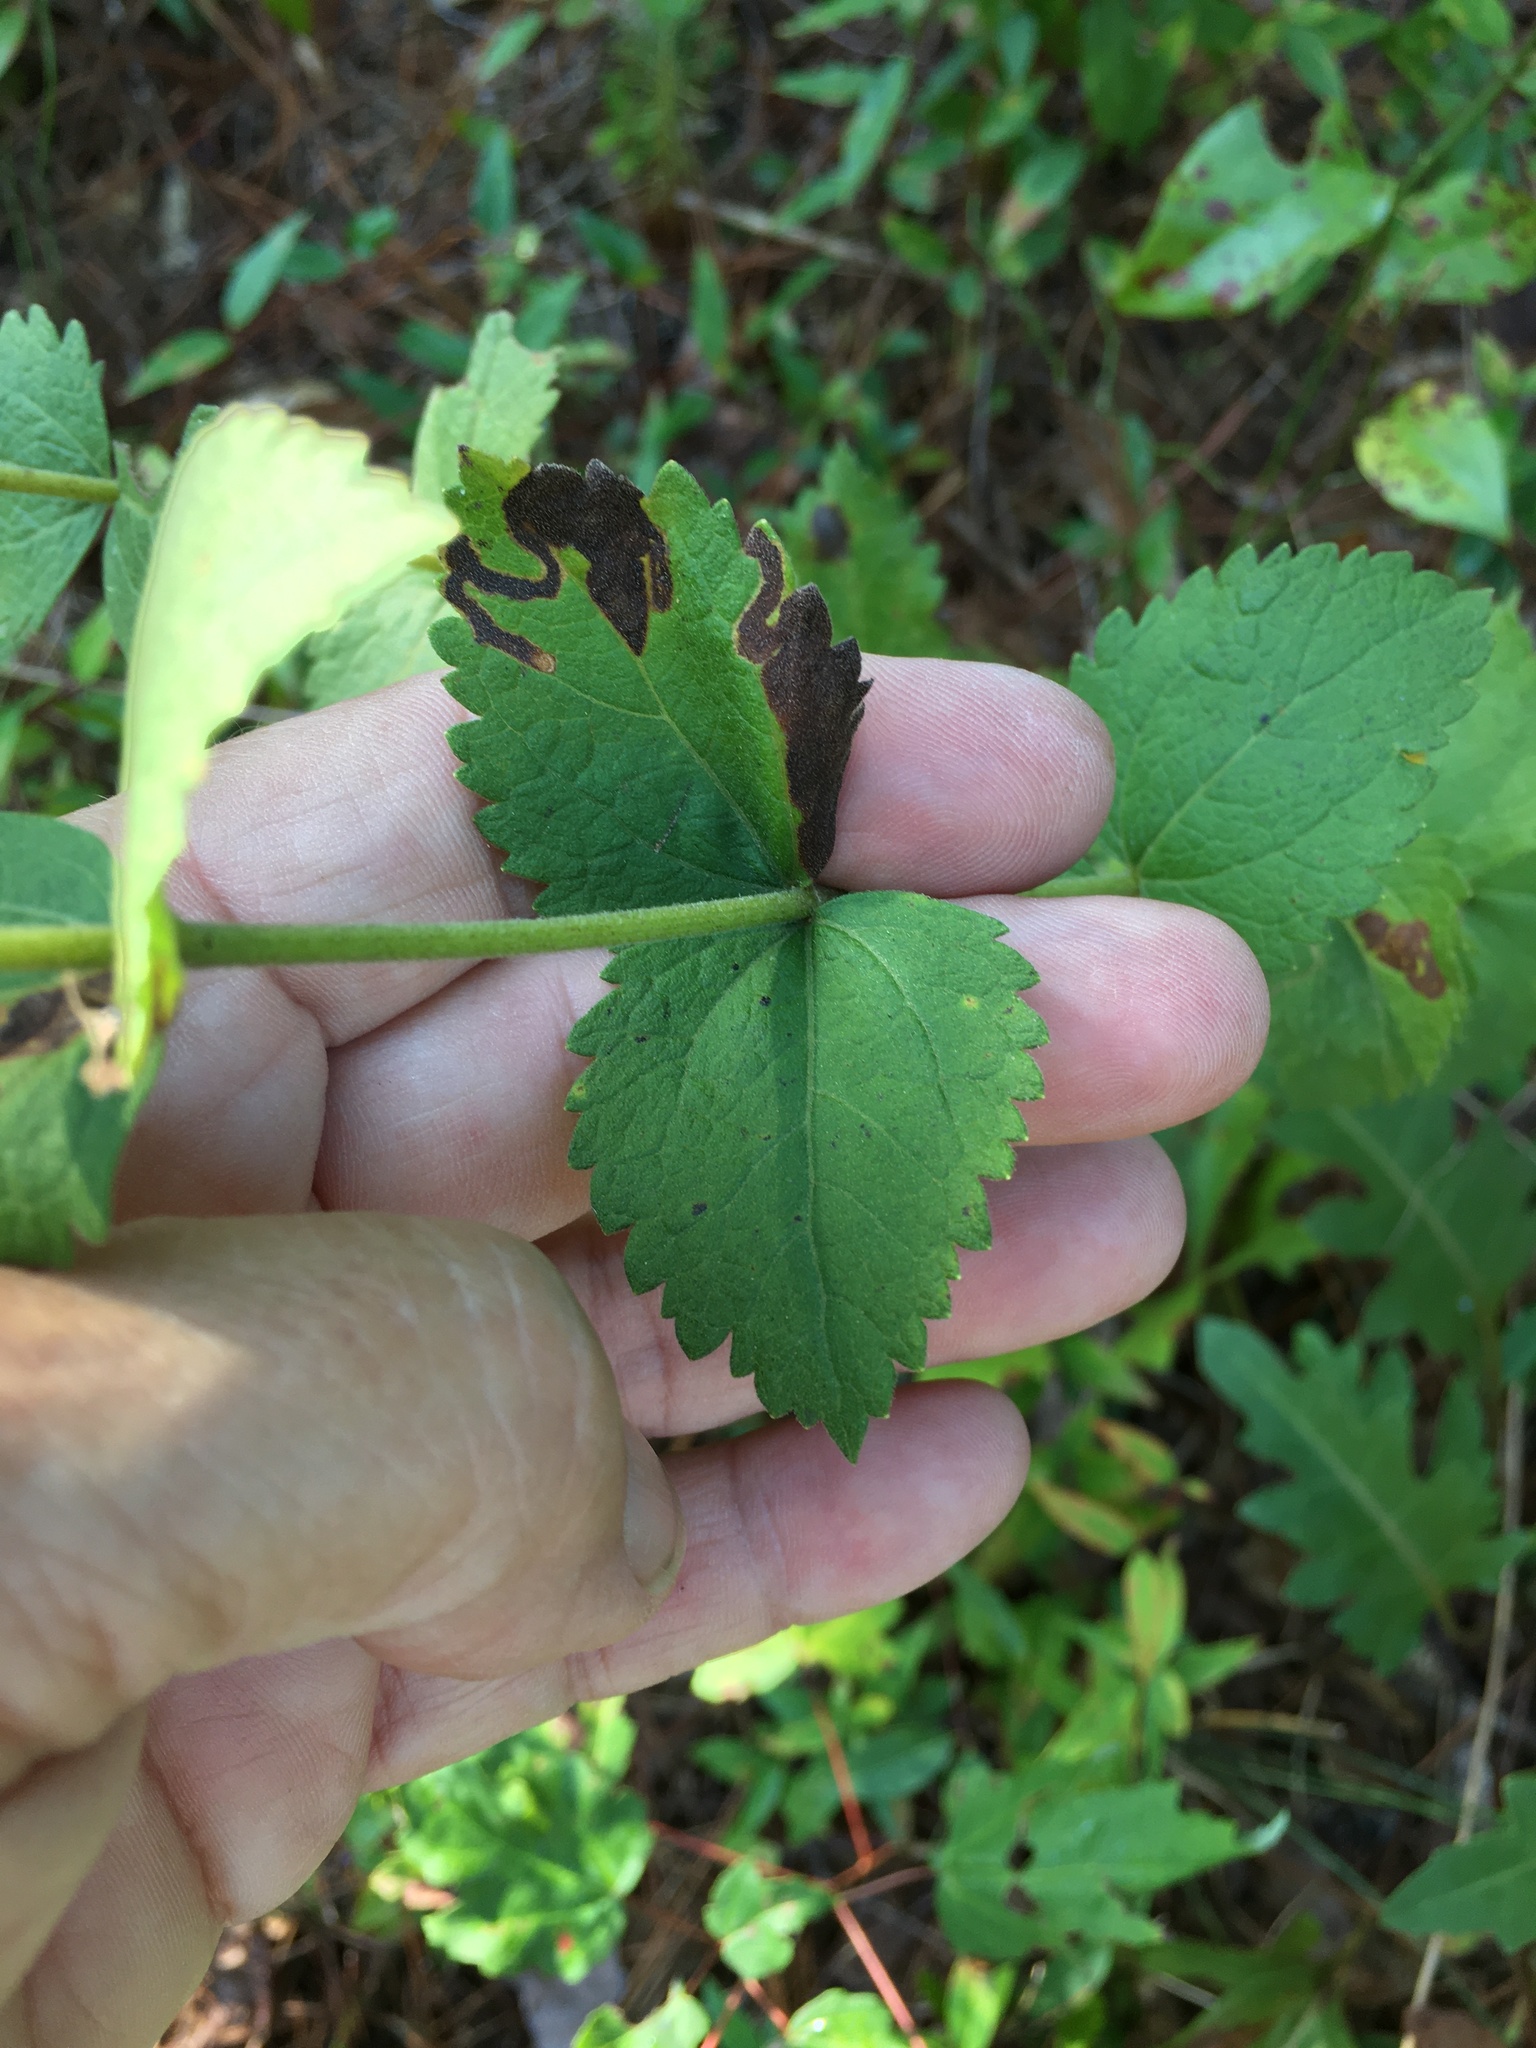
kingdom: Plantae
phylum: Tracheophyta
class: Magnoliopsida
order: Asterales
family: Asteraceae
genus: Eupatorium
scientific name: Eupatorium rotundifolium
